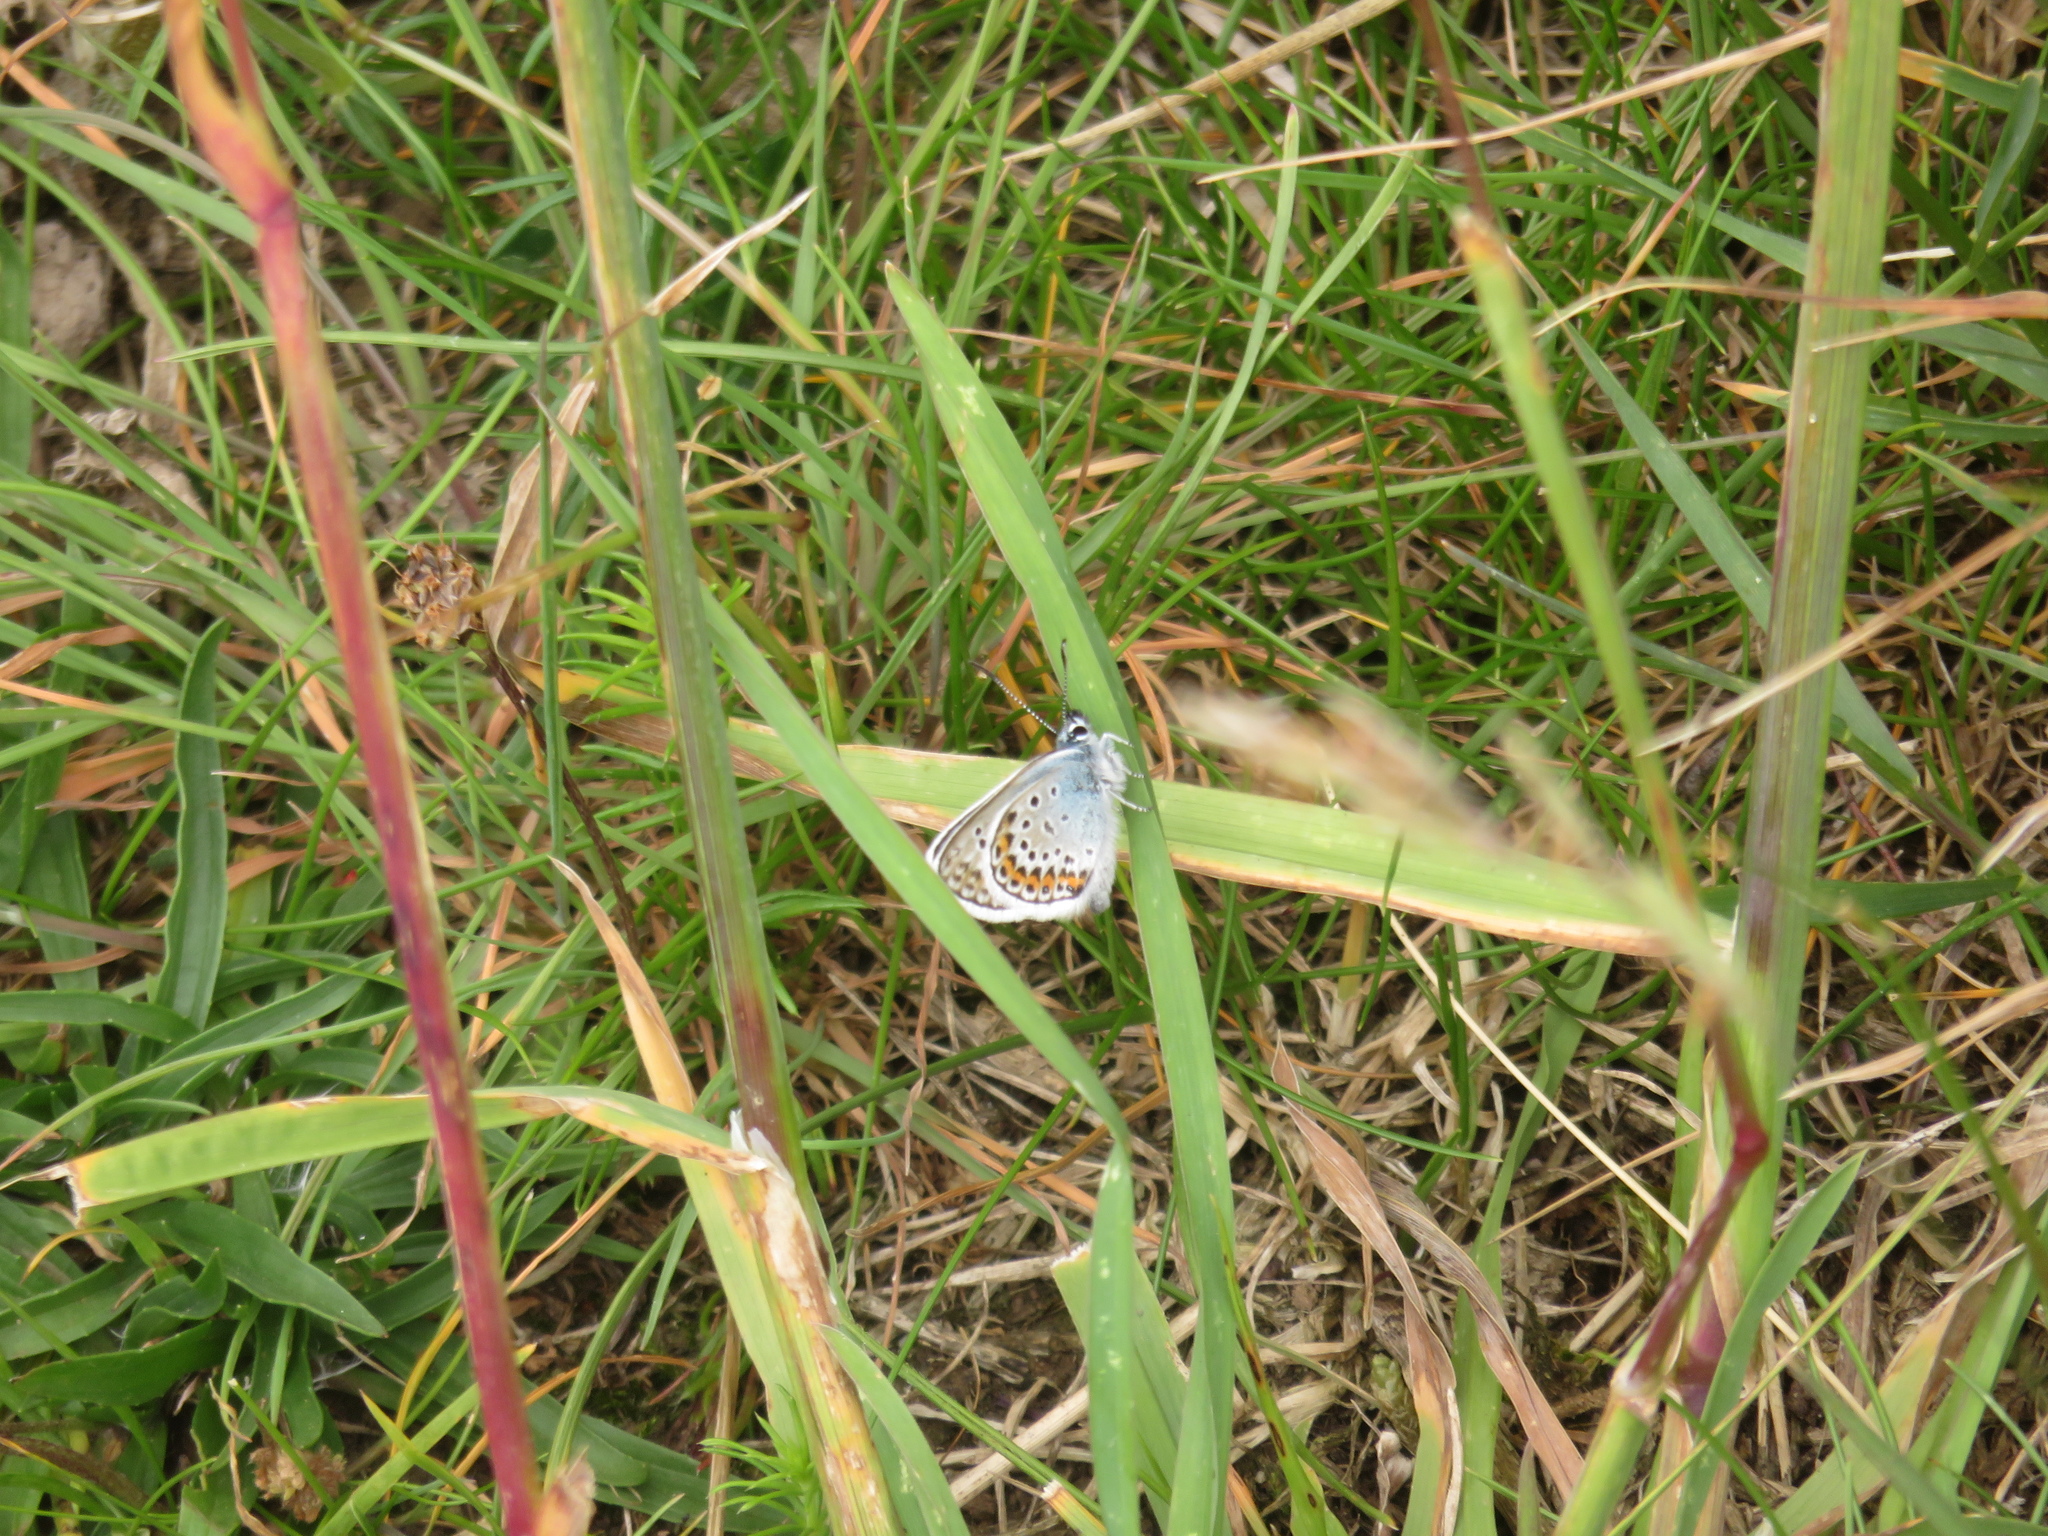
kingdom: Animalia
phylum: Arthropoda
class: Insecta
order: Lepidoptera
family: Lycaenidae
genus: Plebejus
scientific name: Plebejus argus
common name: Silver-studded blue
